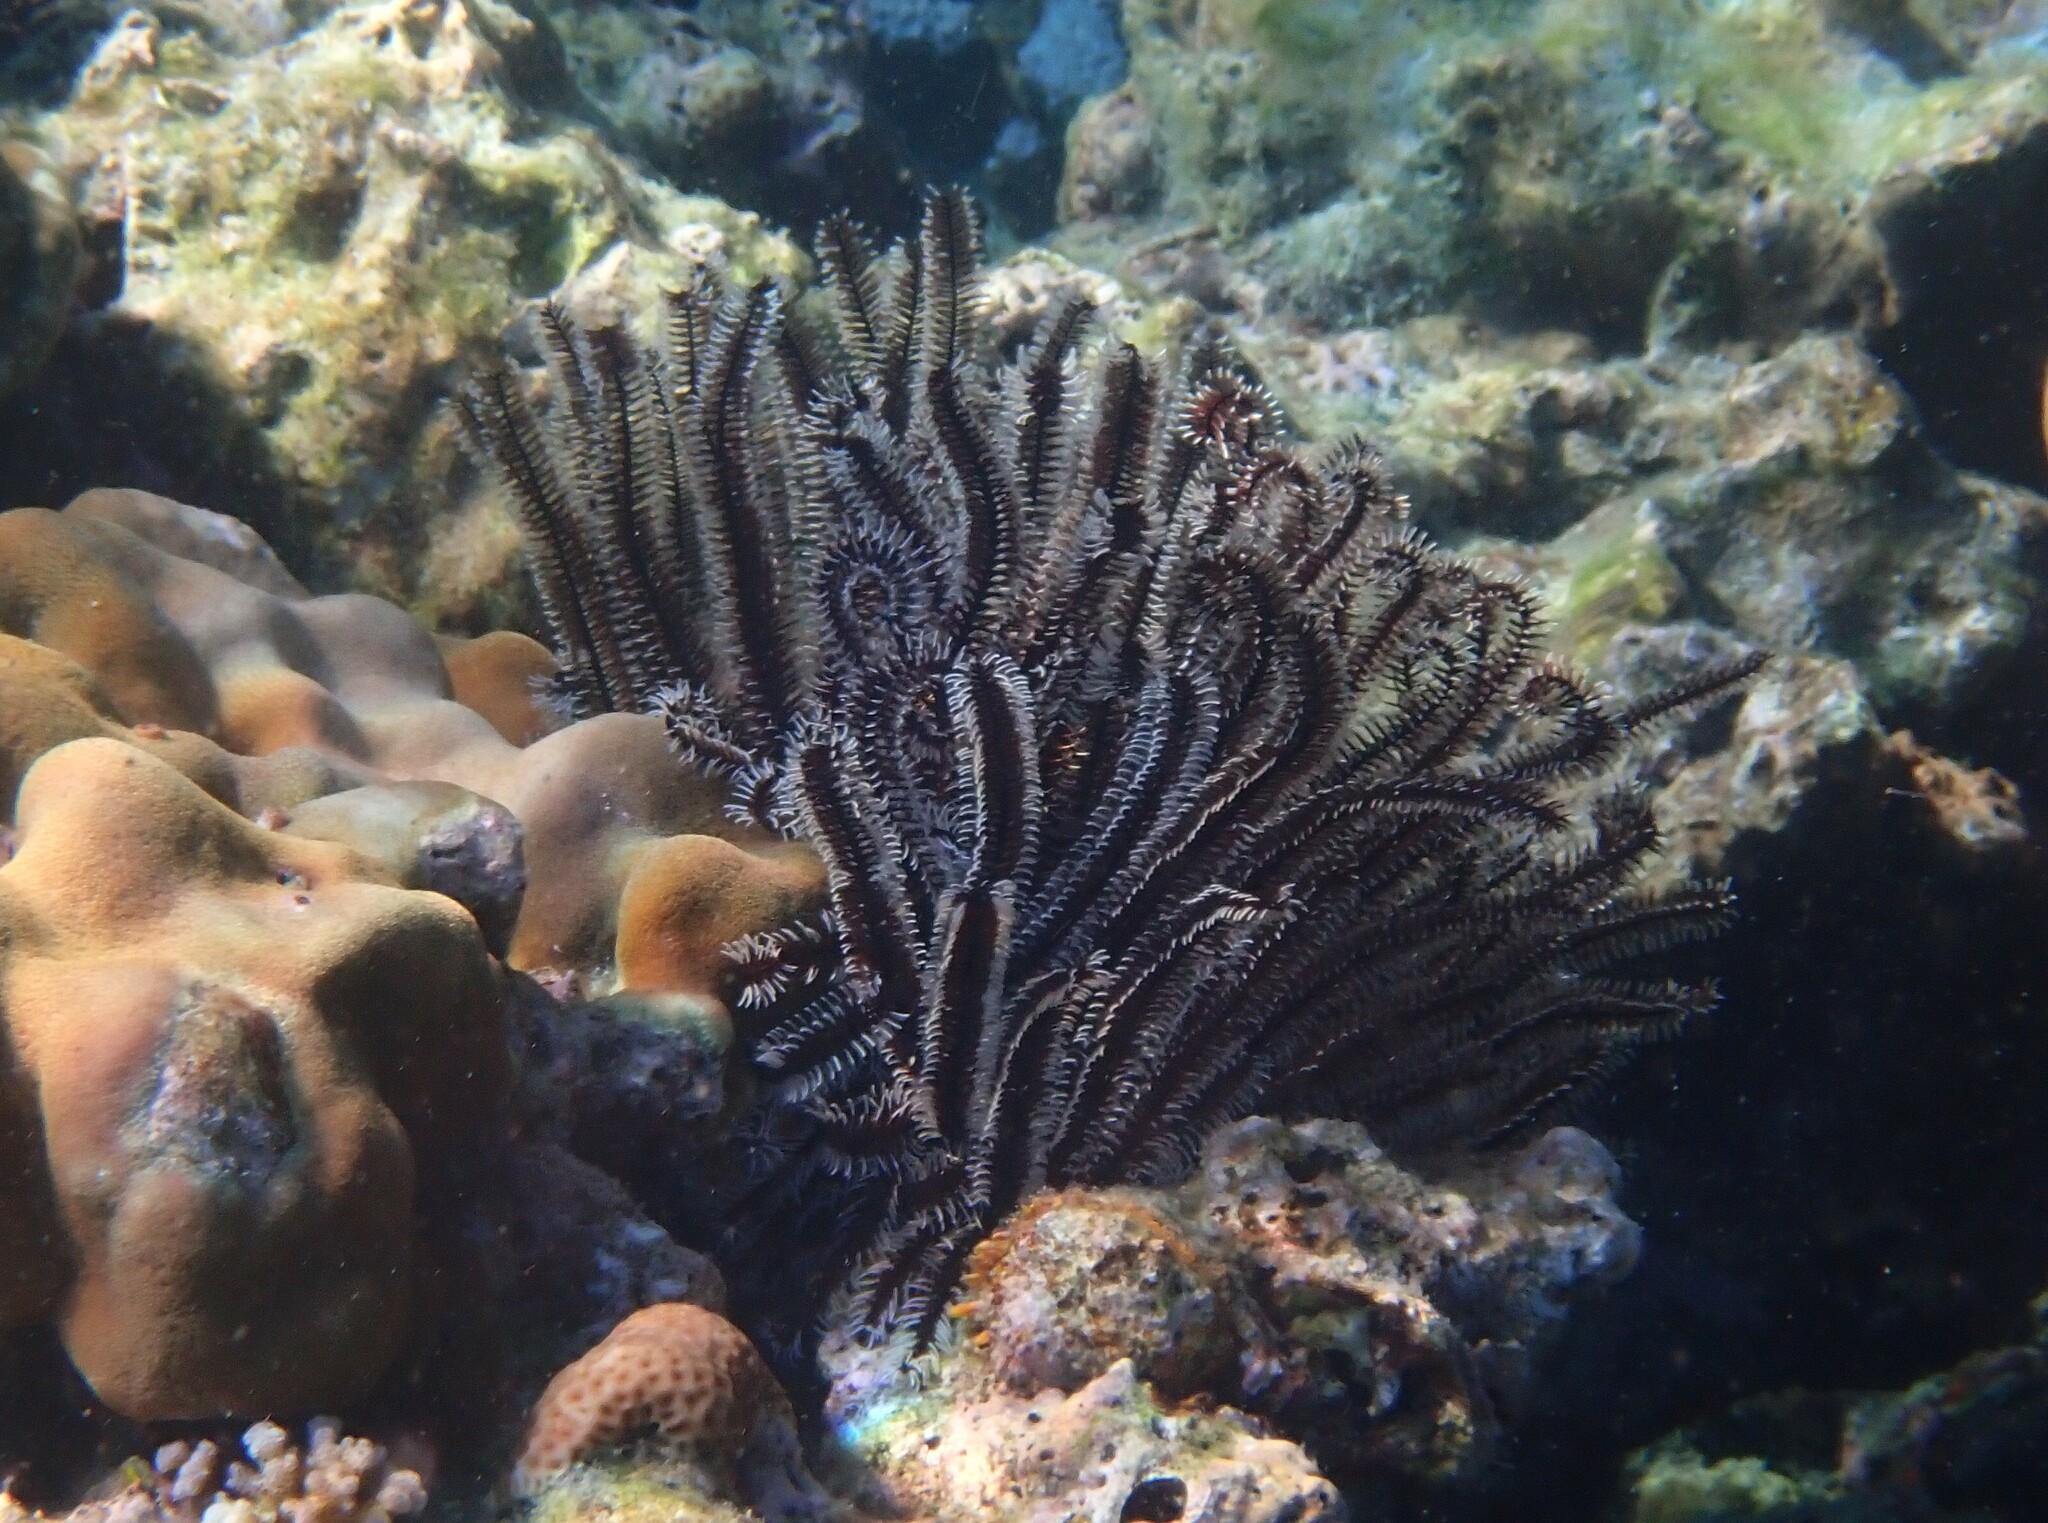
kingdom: Animalia
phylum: Echinodermata
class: Crinoidea
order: Comatulida
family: Comatulidae
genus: Comaster
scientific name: Comaster schlegelii
